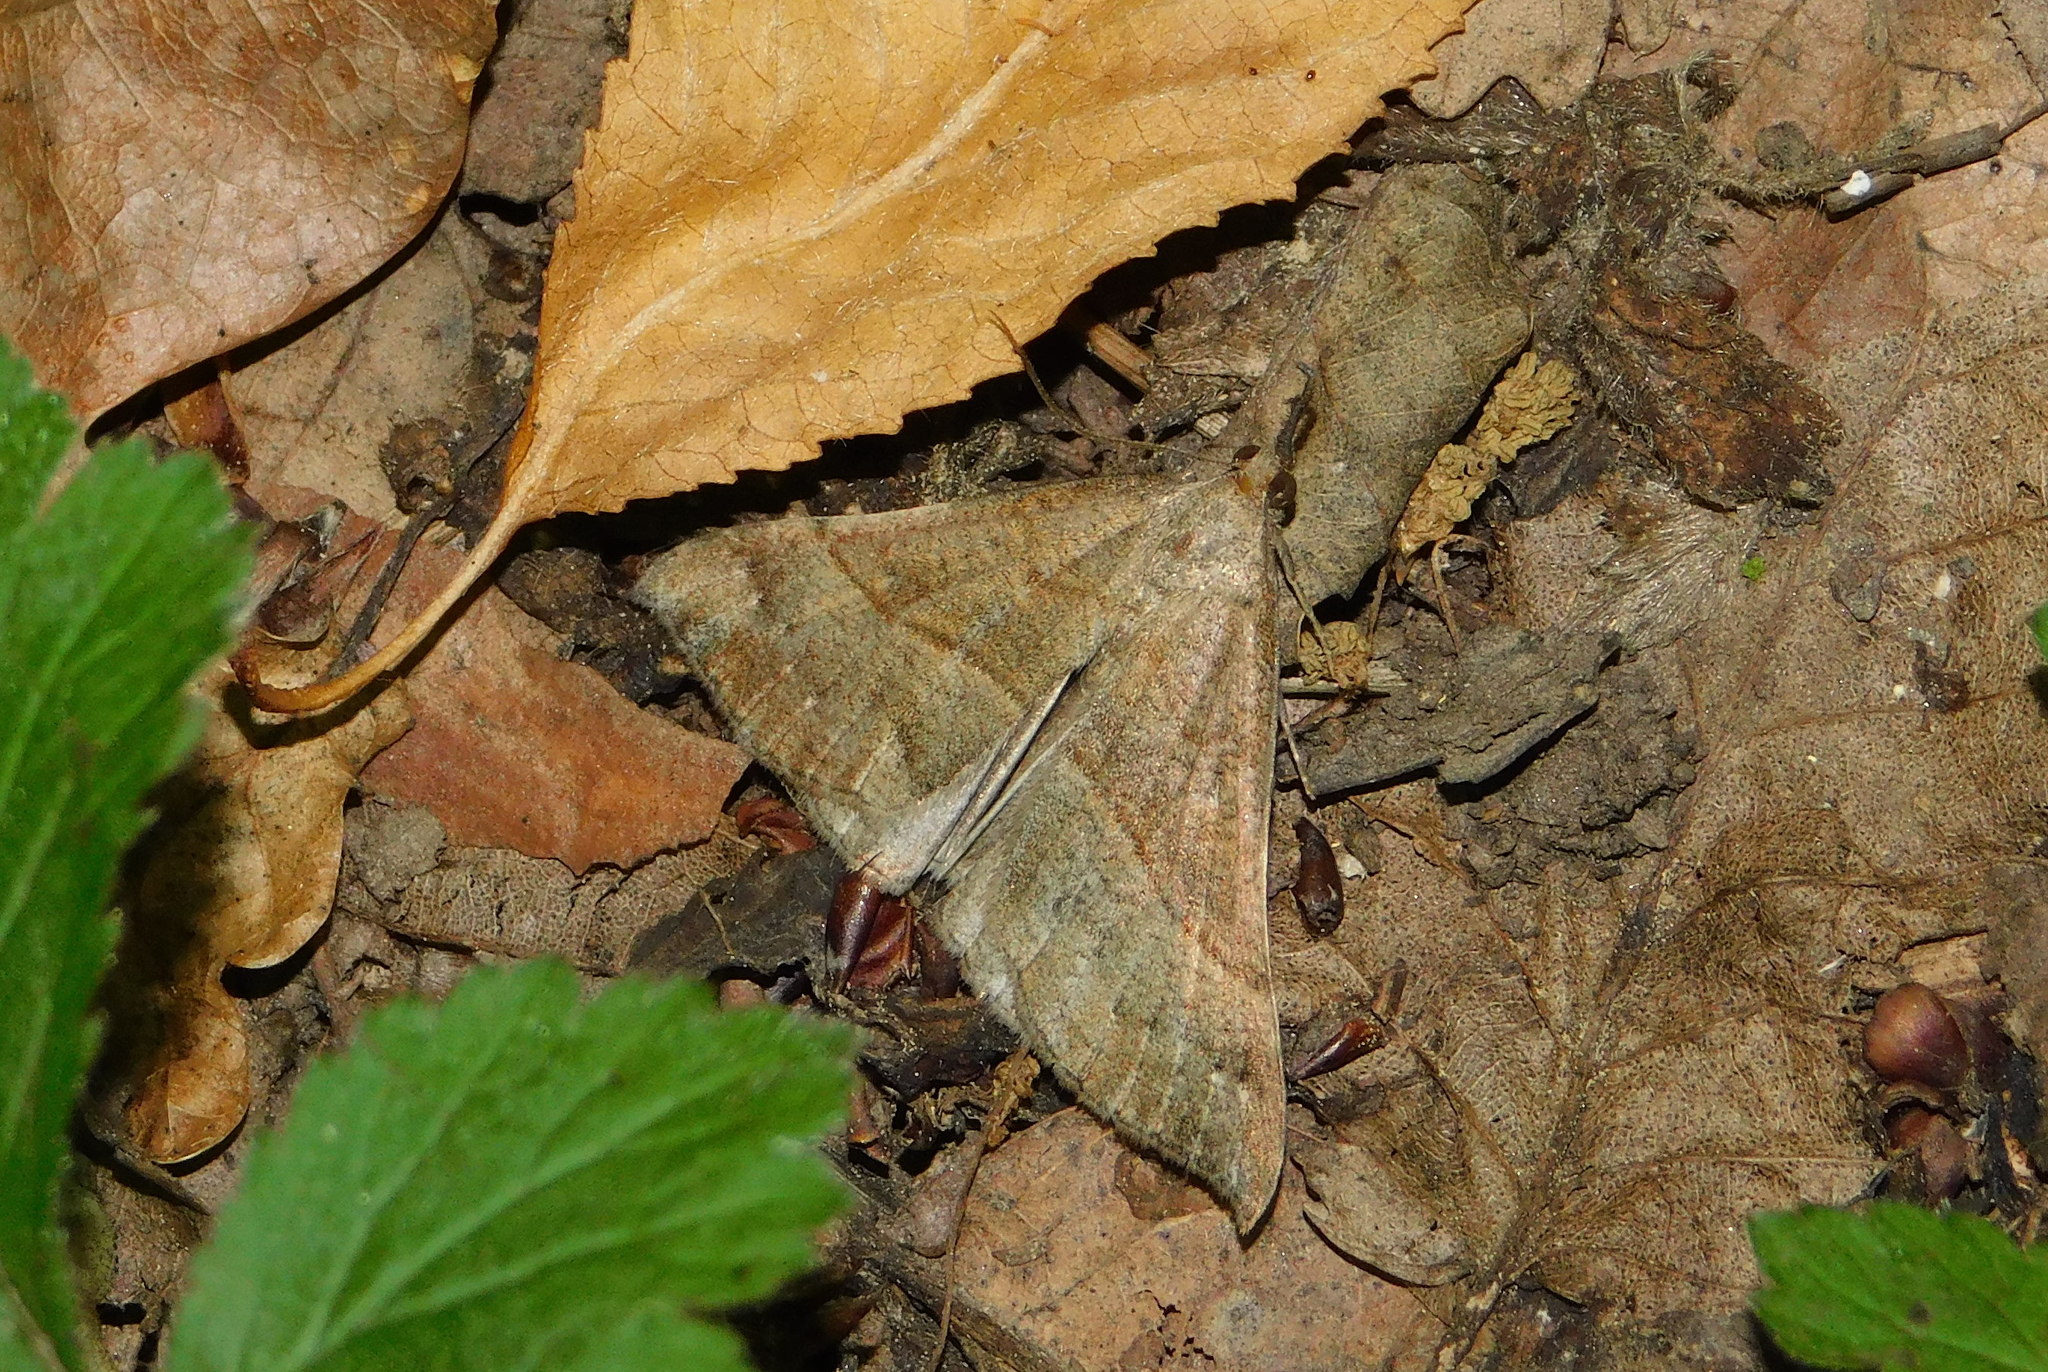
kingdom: Animalia
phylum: Arthropoda
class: Insecta
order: Lepidoptera
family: Erebidae
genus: Hypena
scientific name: Hypena proboscidalis
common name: Snout
